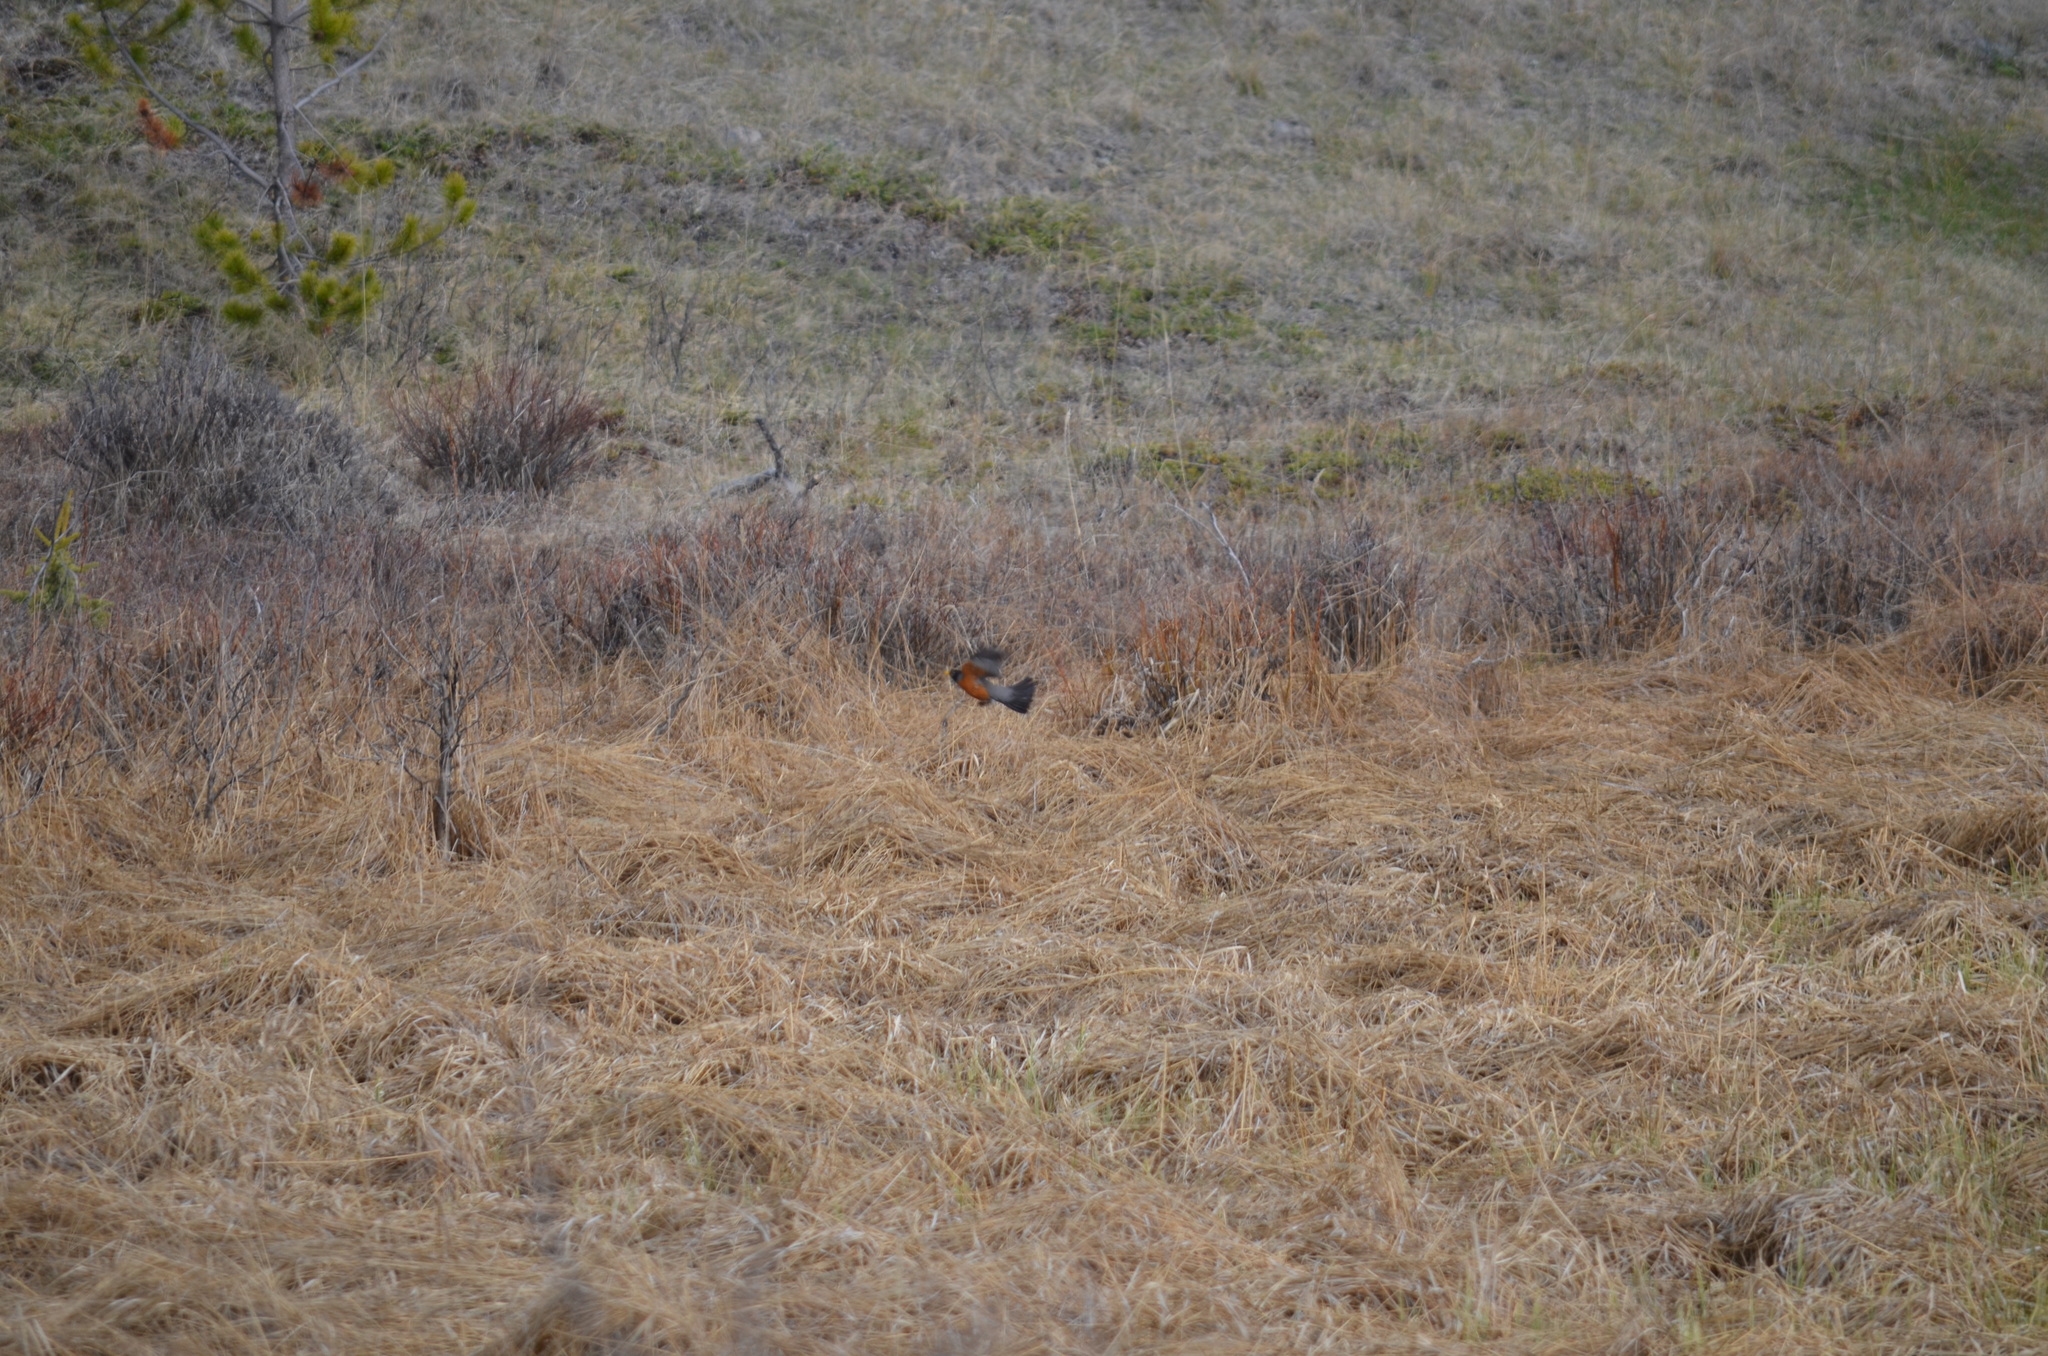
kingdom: Animalia
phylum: Chordata
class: Aves
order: Passeriformes
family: Turdidae
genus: Turdus
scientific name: Turdus migratorius
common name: American robin
